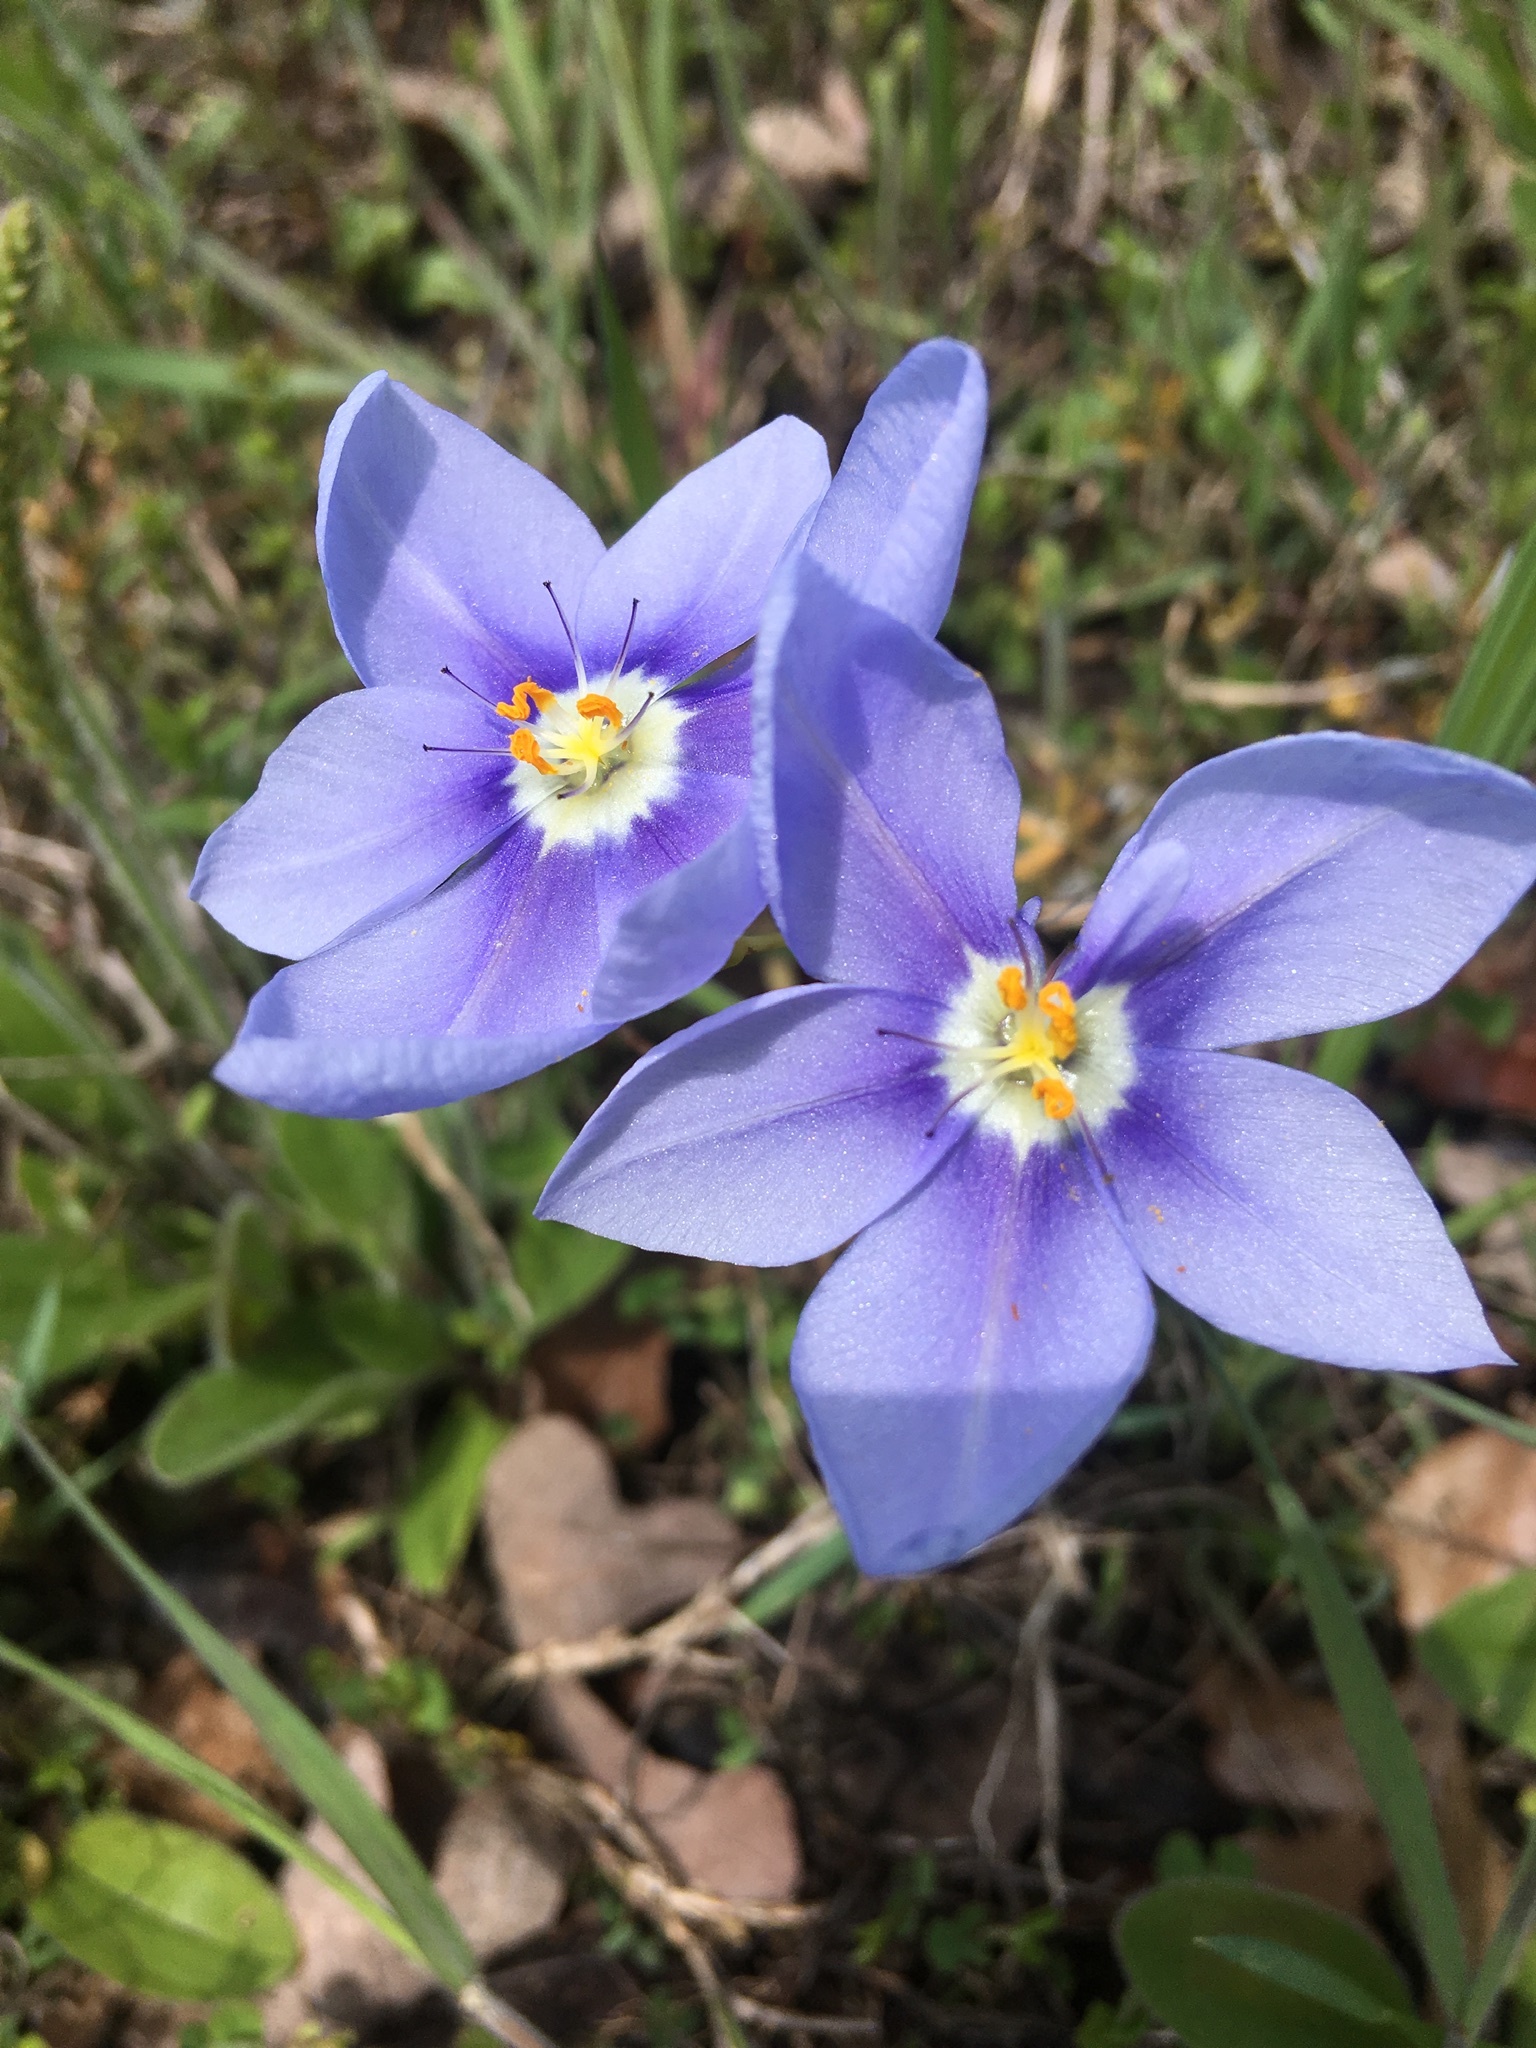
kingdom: Plantae
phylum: Tracheophyta
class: Liliopsida
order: Asparagales
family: Iridaceae
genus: Nemastylis
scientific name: Nemastylis geminiflora
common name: Prairie celestial
